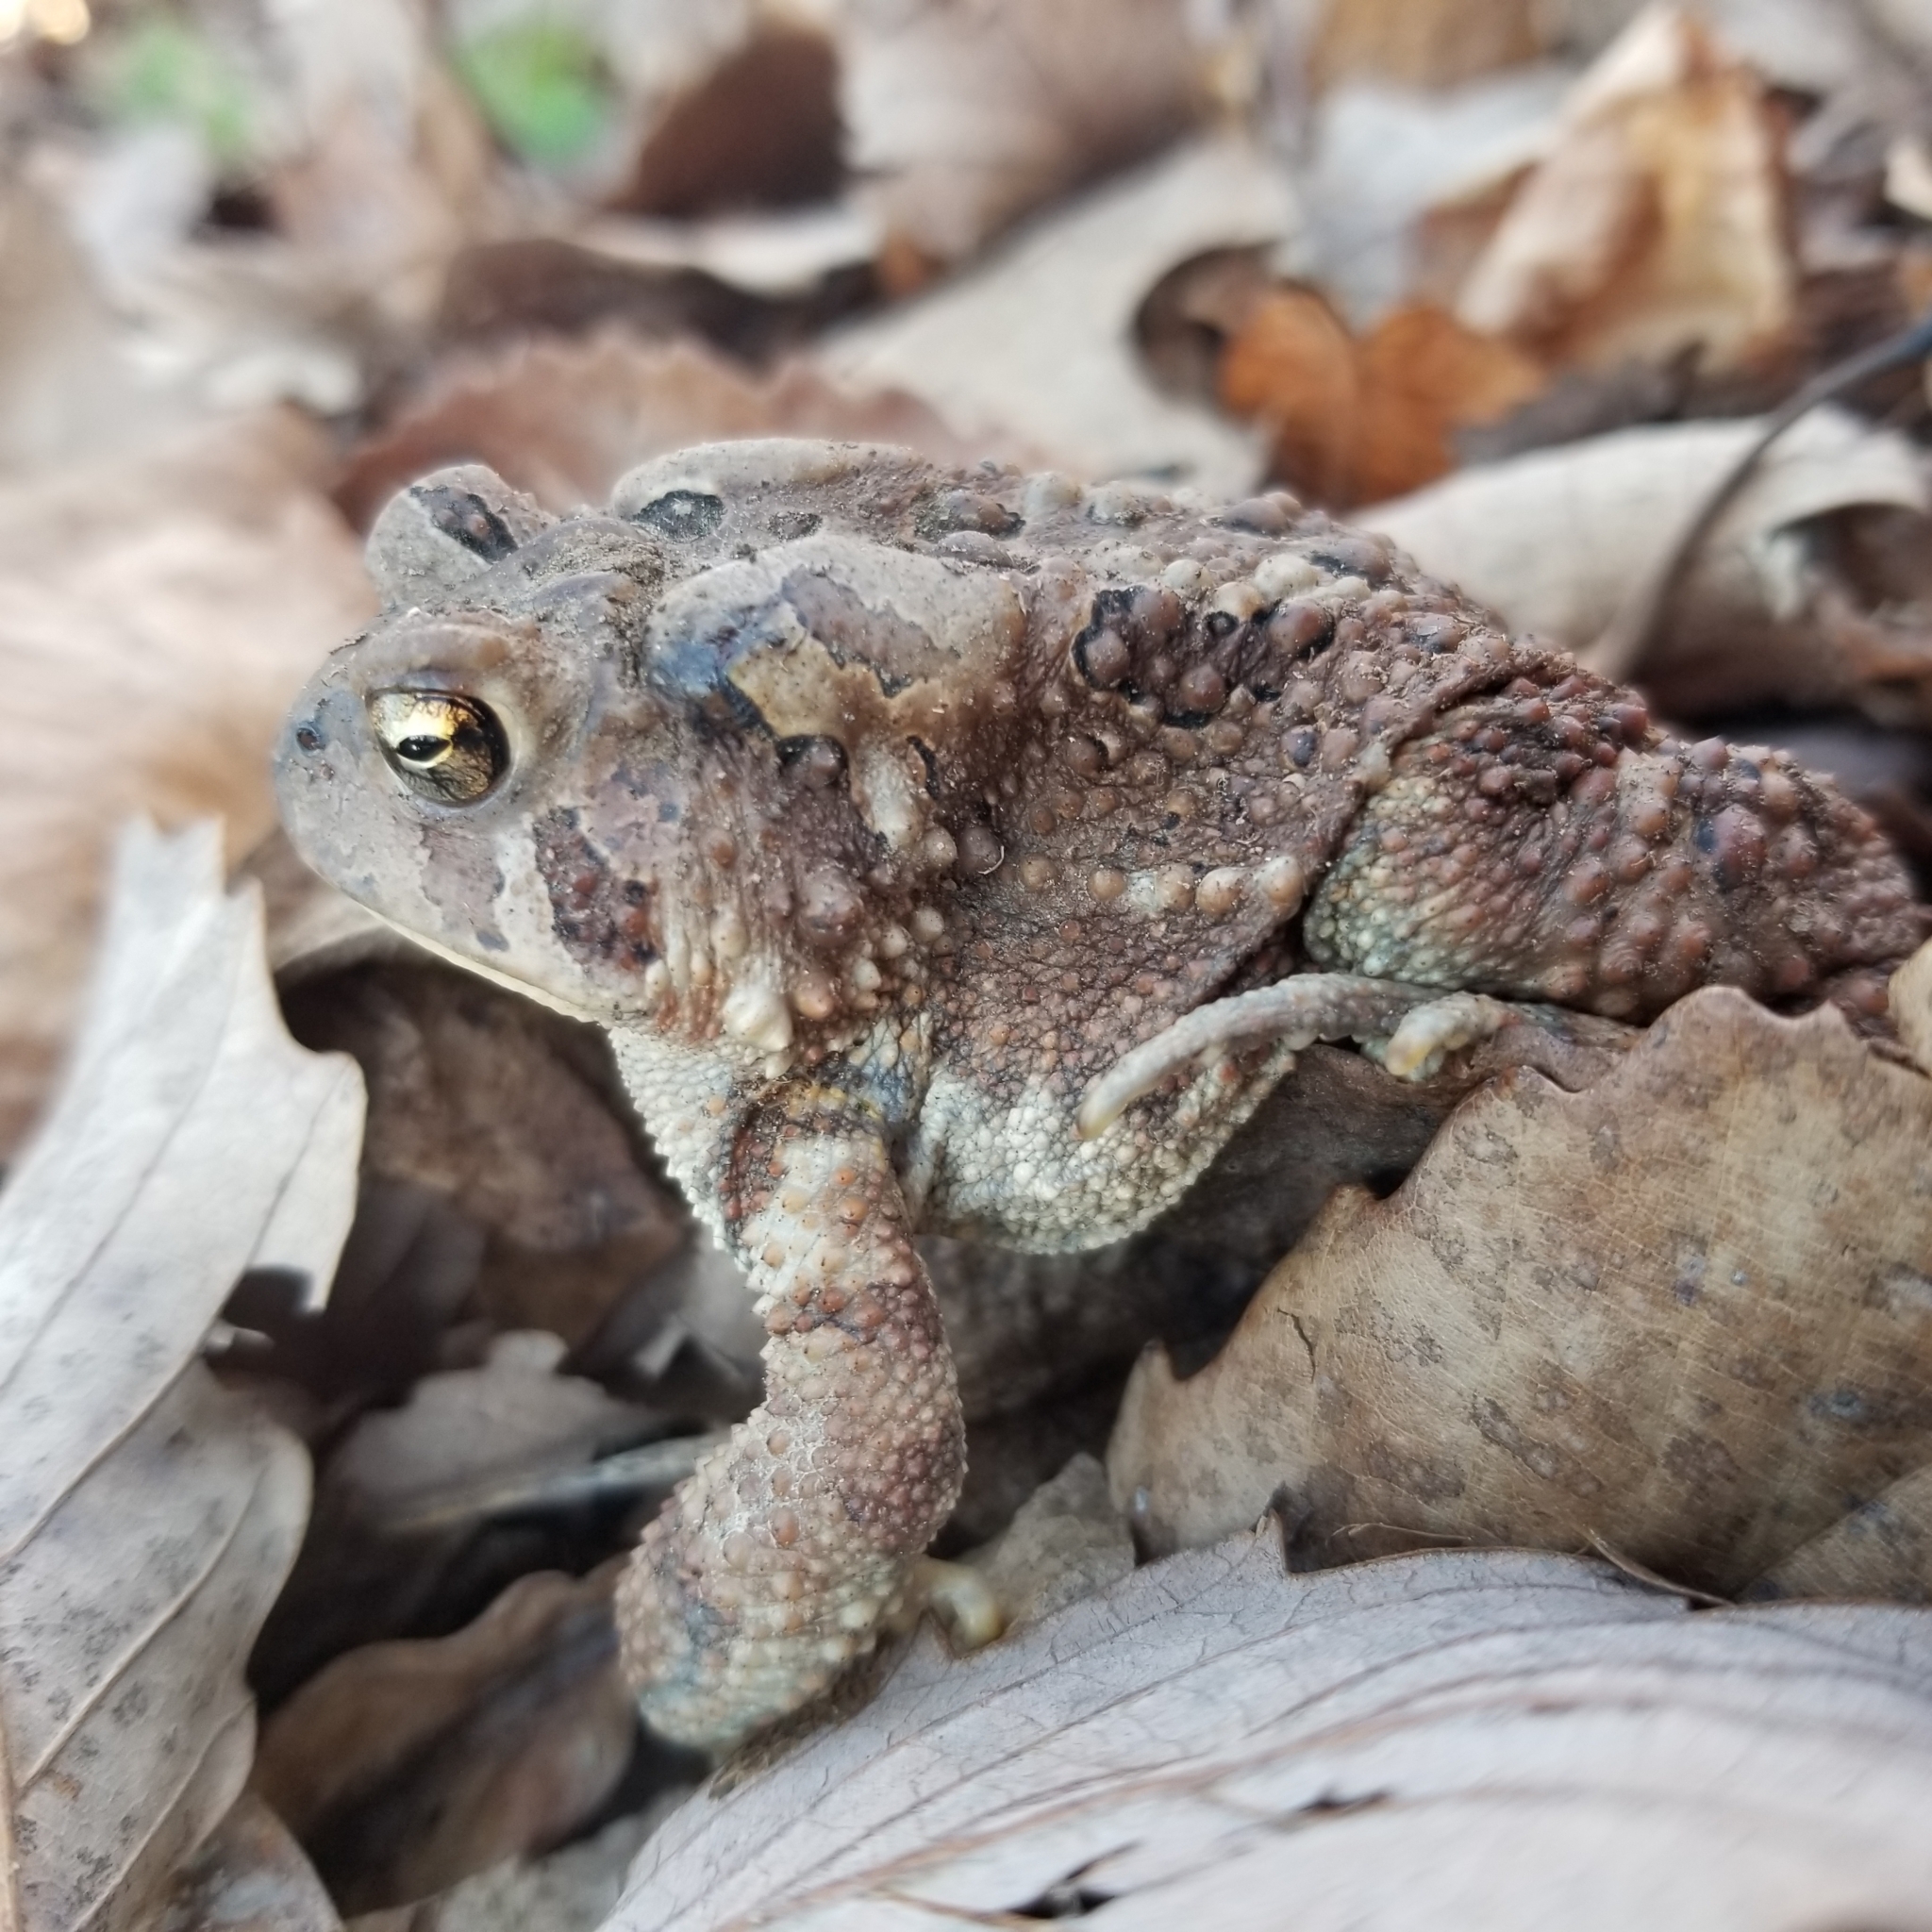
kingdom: Animalia
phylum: Chordata
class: Amphibia
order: Anura
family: Bufonidae
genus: Anaxyrus
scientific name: Anaxyrus americanus
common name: American toad
